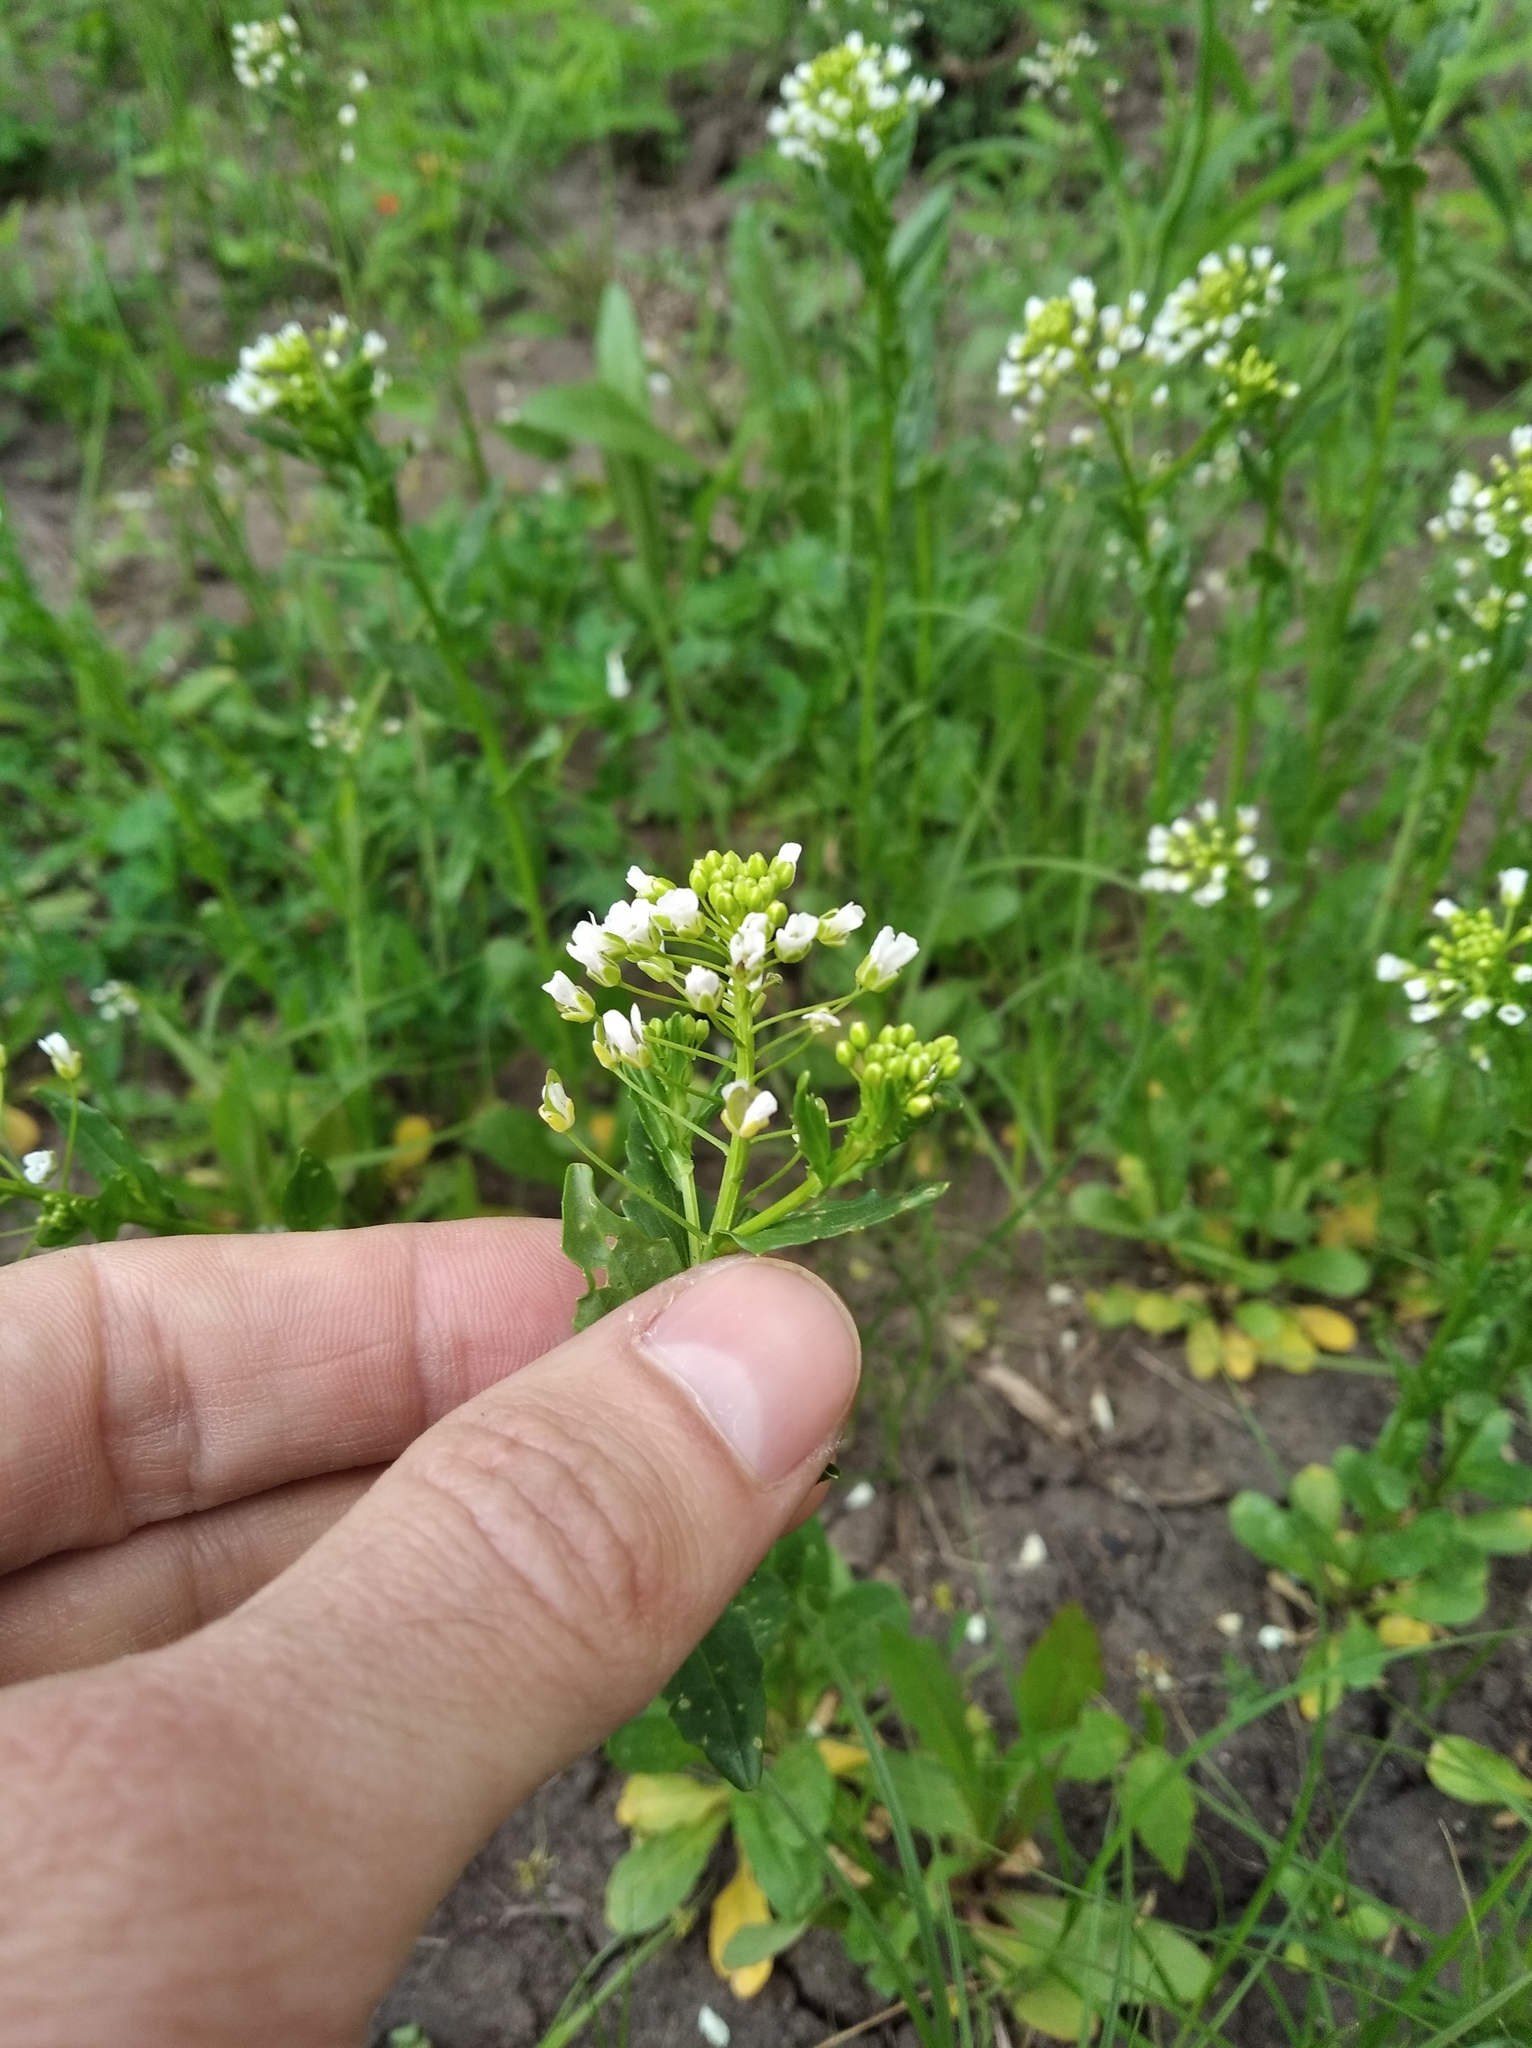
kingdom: Plantae
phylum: Tracheophyta
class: Magnoliopsida
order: Brassicales
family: Brassicaceae
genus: Thlaspi
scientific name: Thlaspi arvense
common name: Field pennycress
